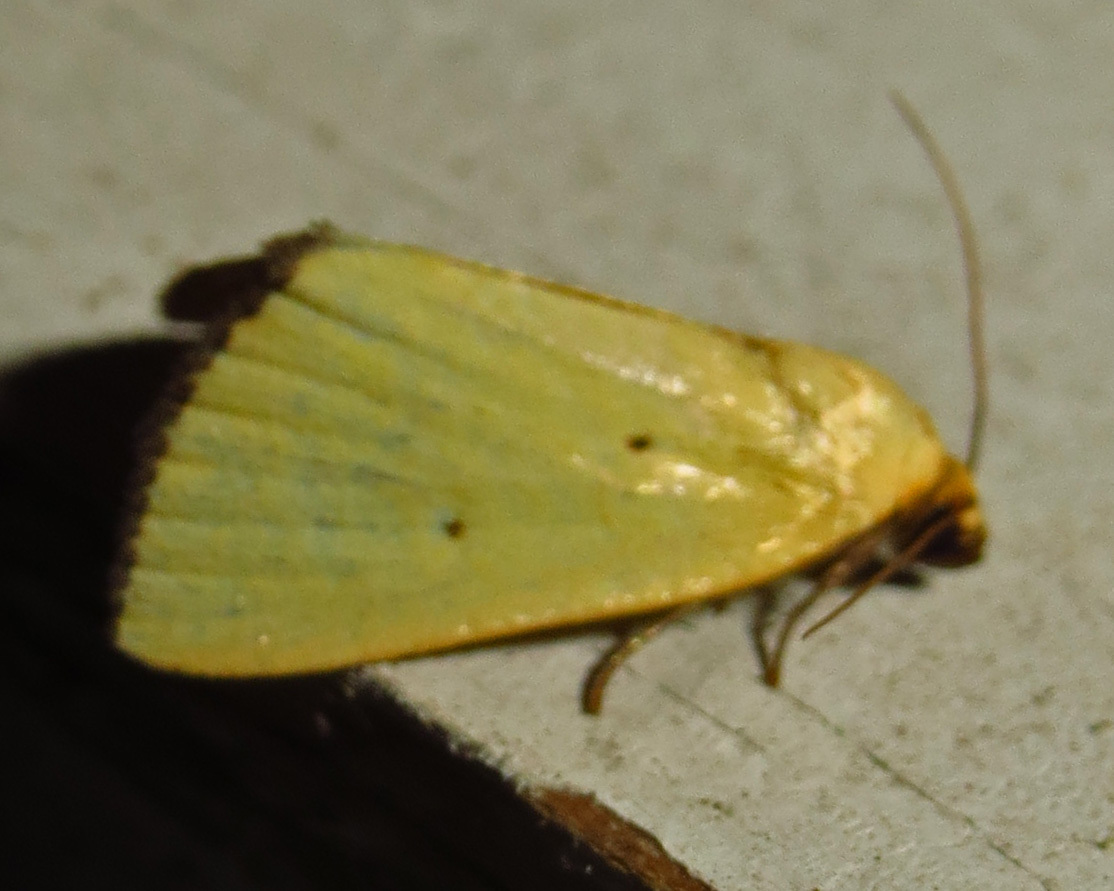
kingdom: Animalia
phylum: Arthropoda
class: Insecta
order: Lepidoptera
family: Noctuidae
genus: Marimatha
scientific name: Marimatha nigrofimbria
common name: Black-bordered lemon moth
